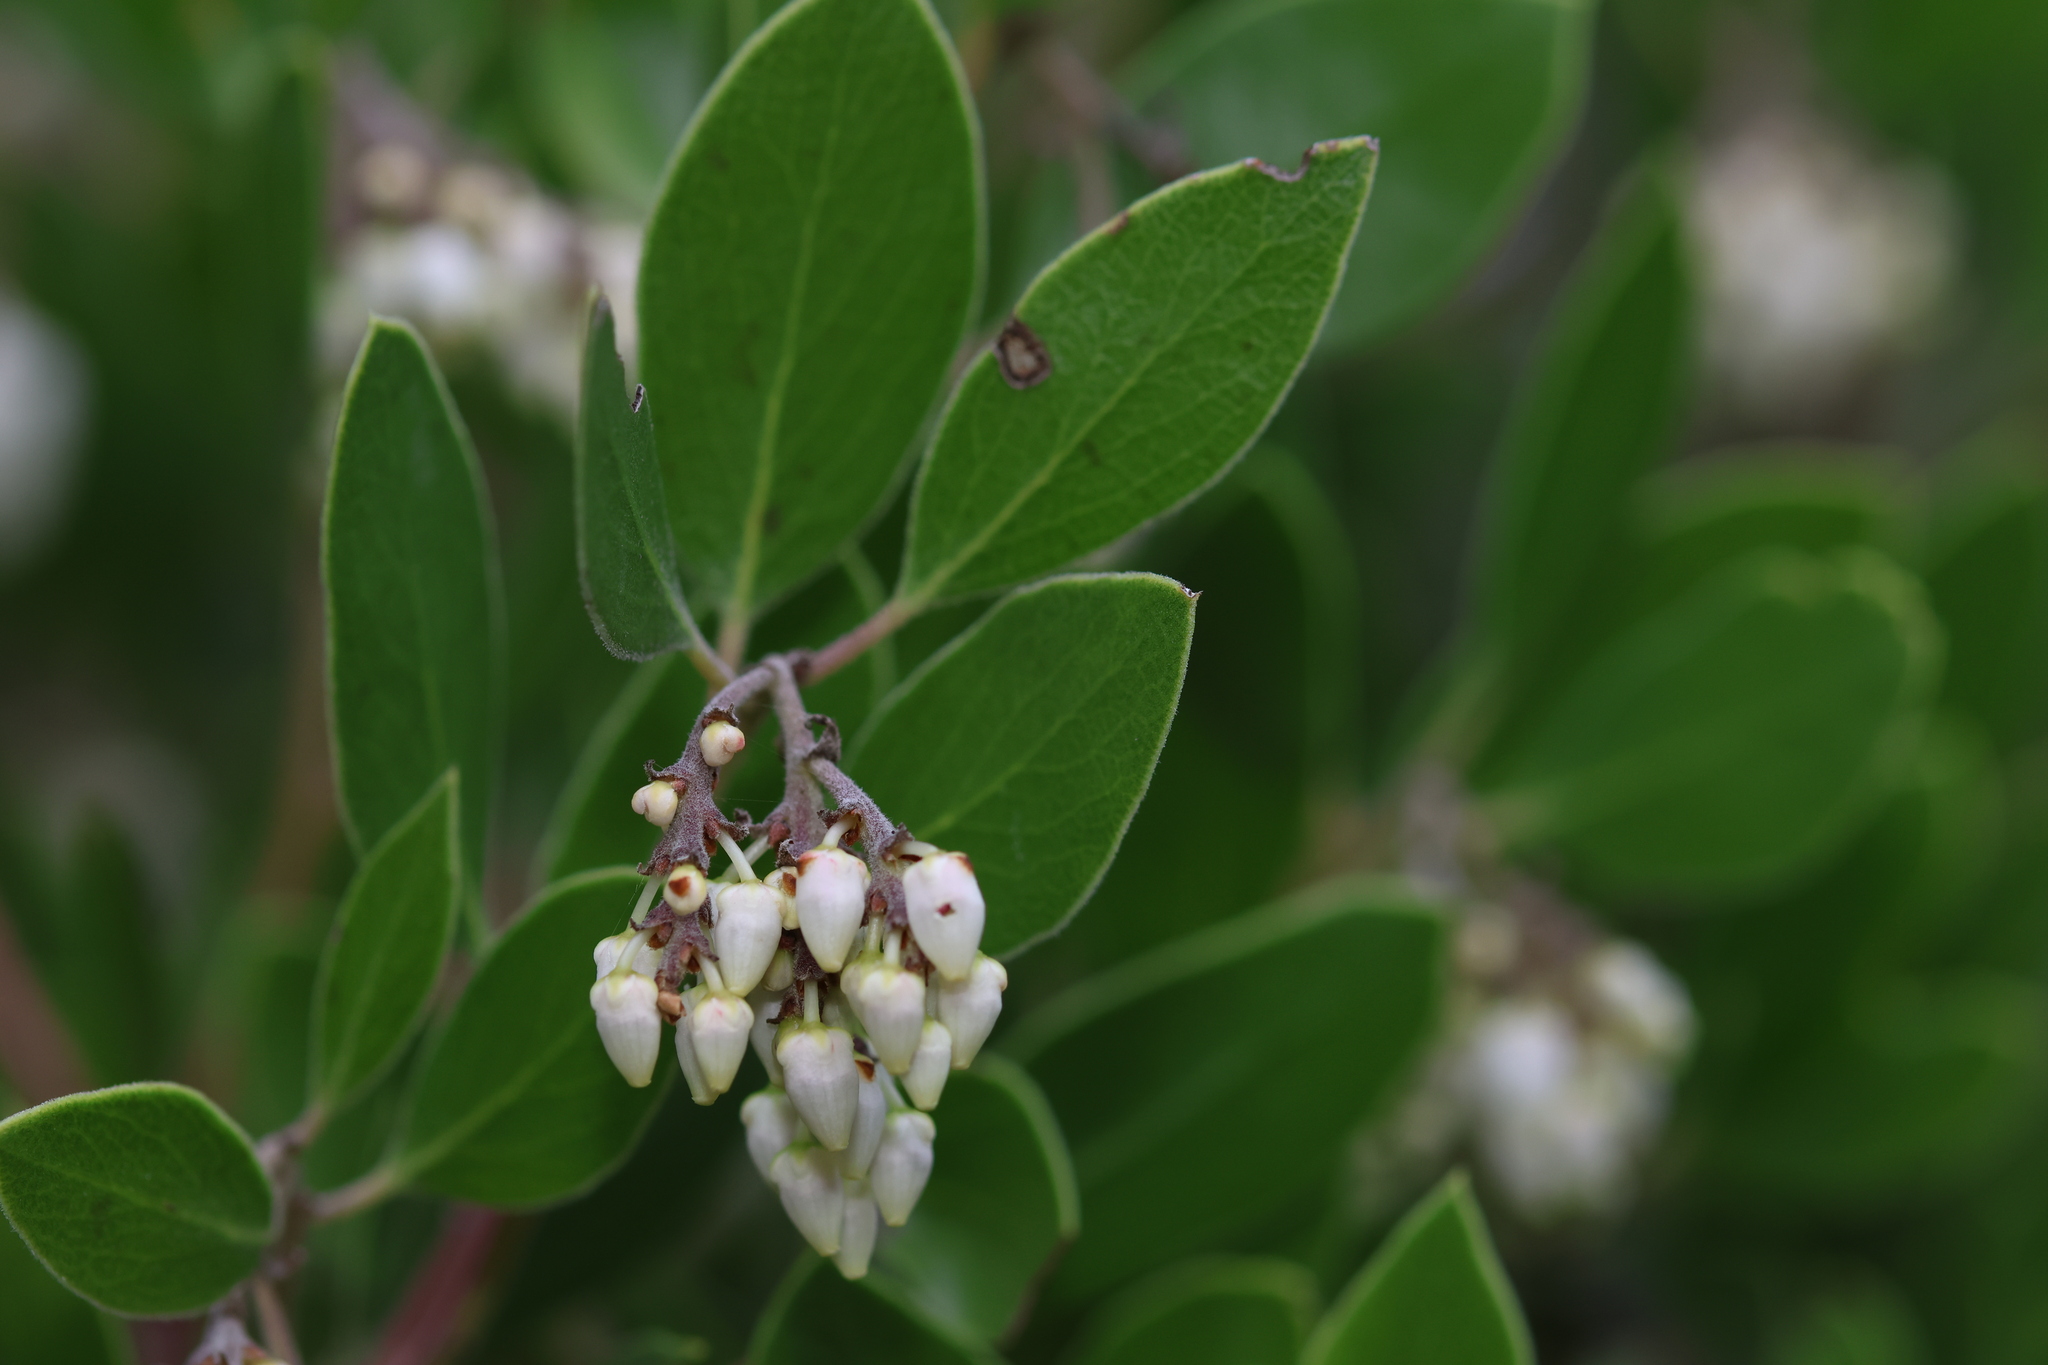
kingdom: Plantae
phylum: Tracheophyta
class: Magnoliopsida
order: Ericales
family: Ericaceae
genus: Arctostaphylos
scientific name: Arctostaphylos manzanita
